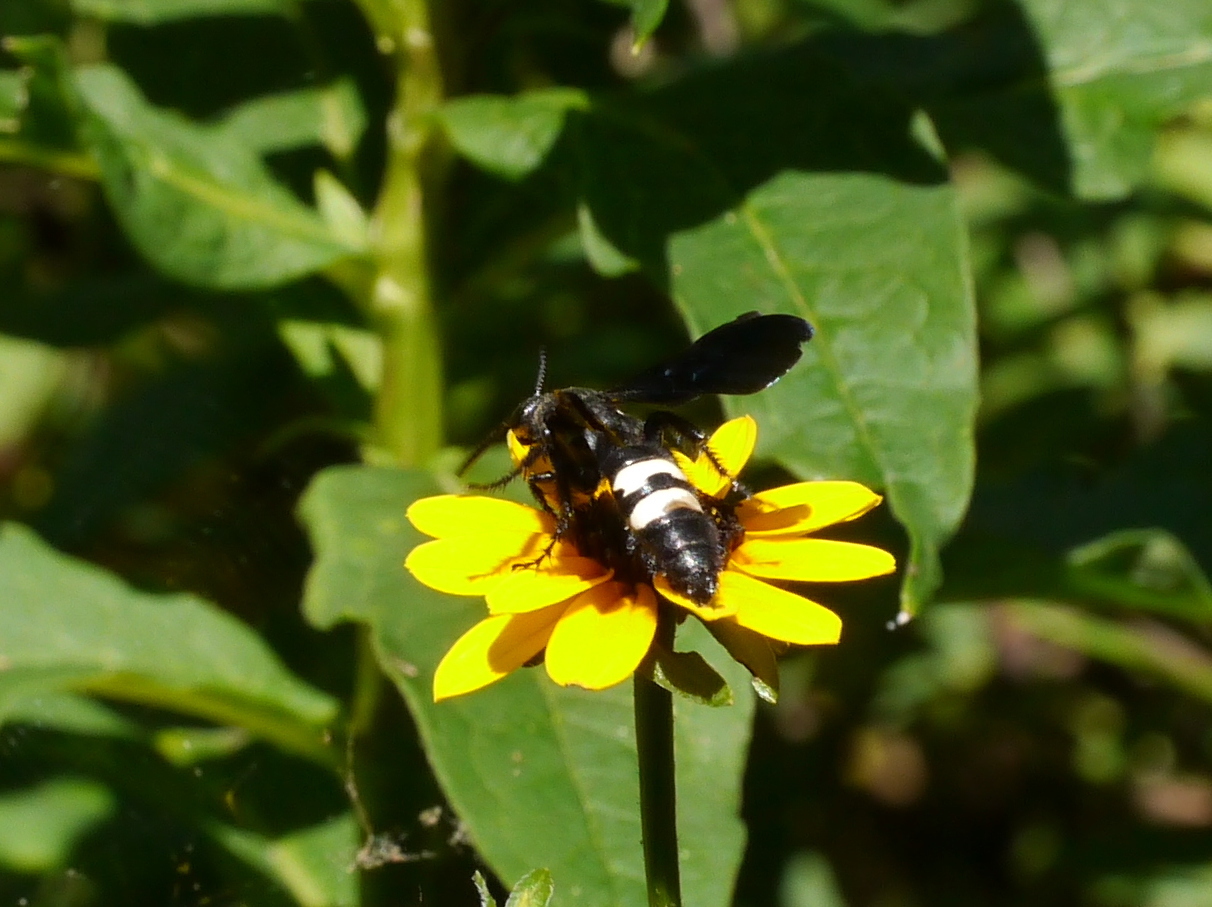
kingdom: Animalia
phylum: Arthropoda
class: Insecta
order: Hymenoptera
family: Scoliidae
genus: Scolia
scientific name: Scolia bicincta
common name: Double-banded scoliid wasp
